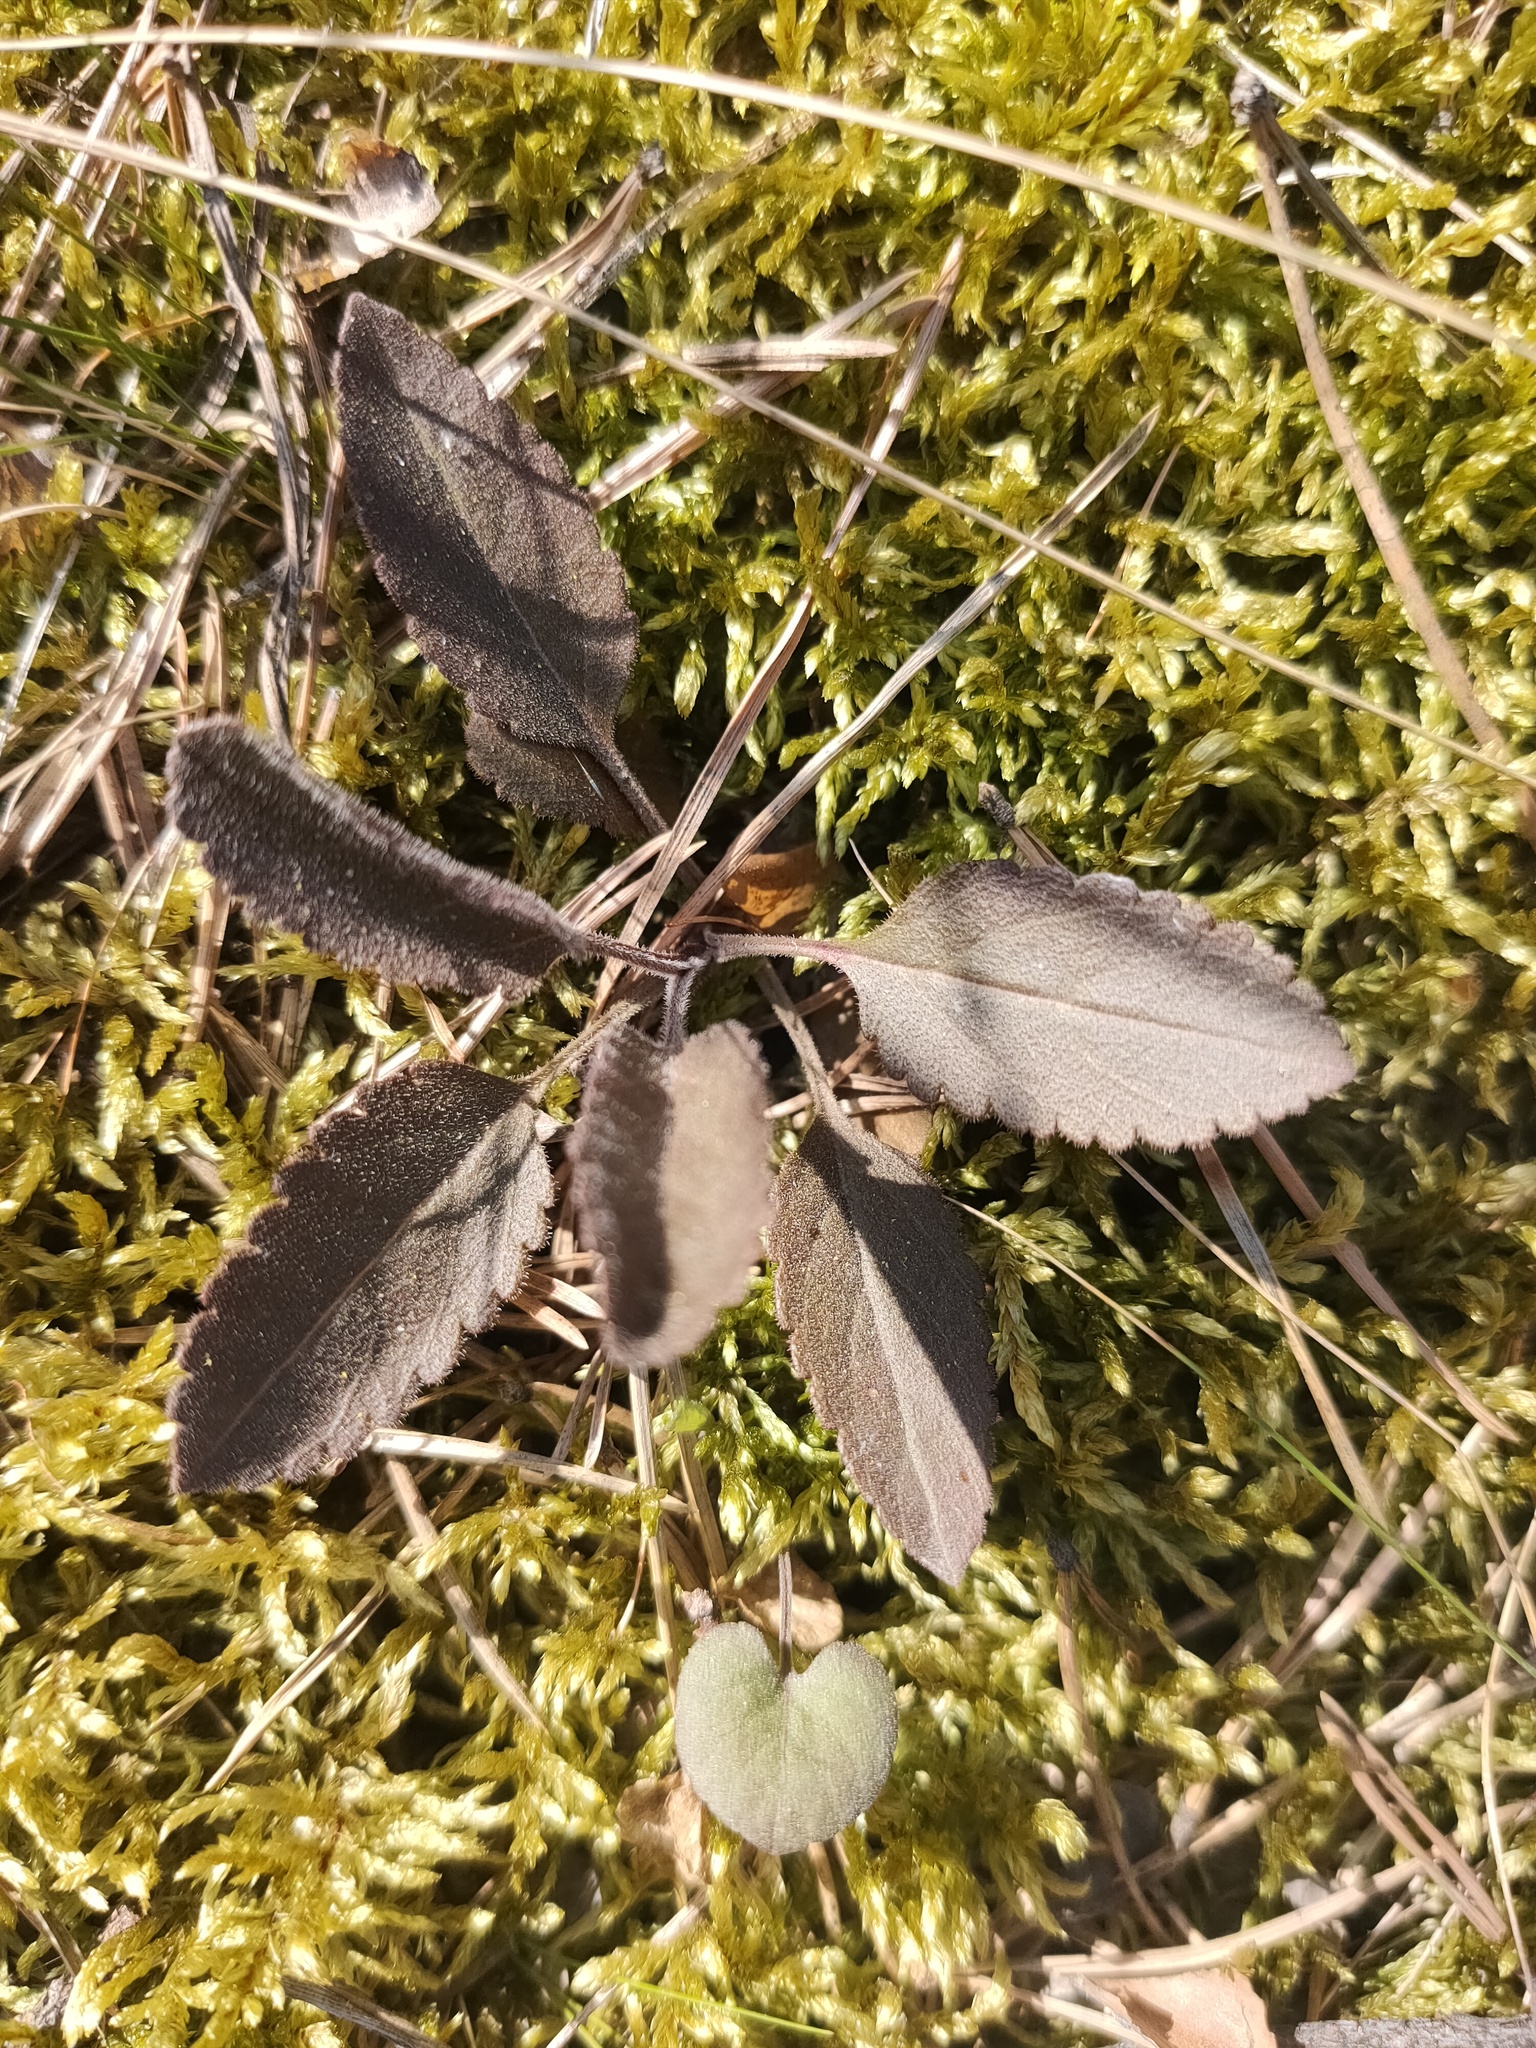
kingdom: Plantae
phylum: Tracheophyta
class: Magnoliopsida
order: Lamiales
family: Plantaginaceae
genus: Veronica
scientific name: Veronica spicata
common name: Spiked speedwell
